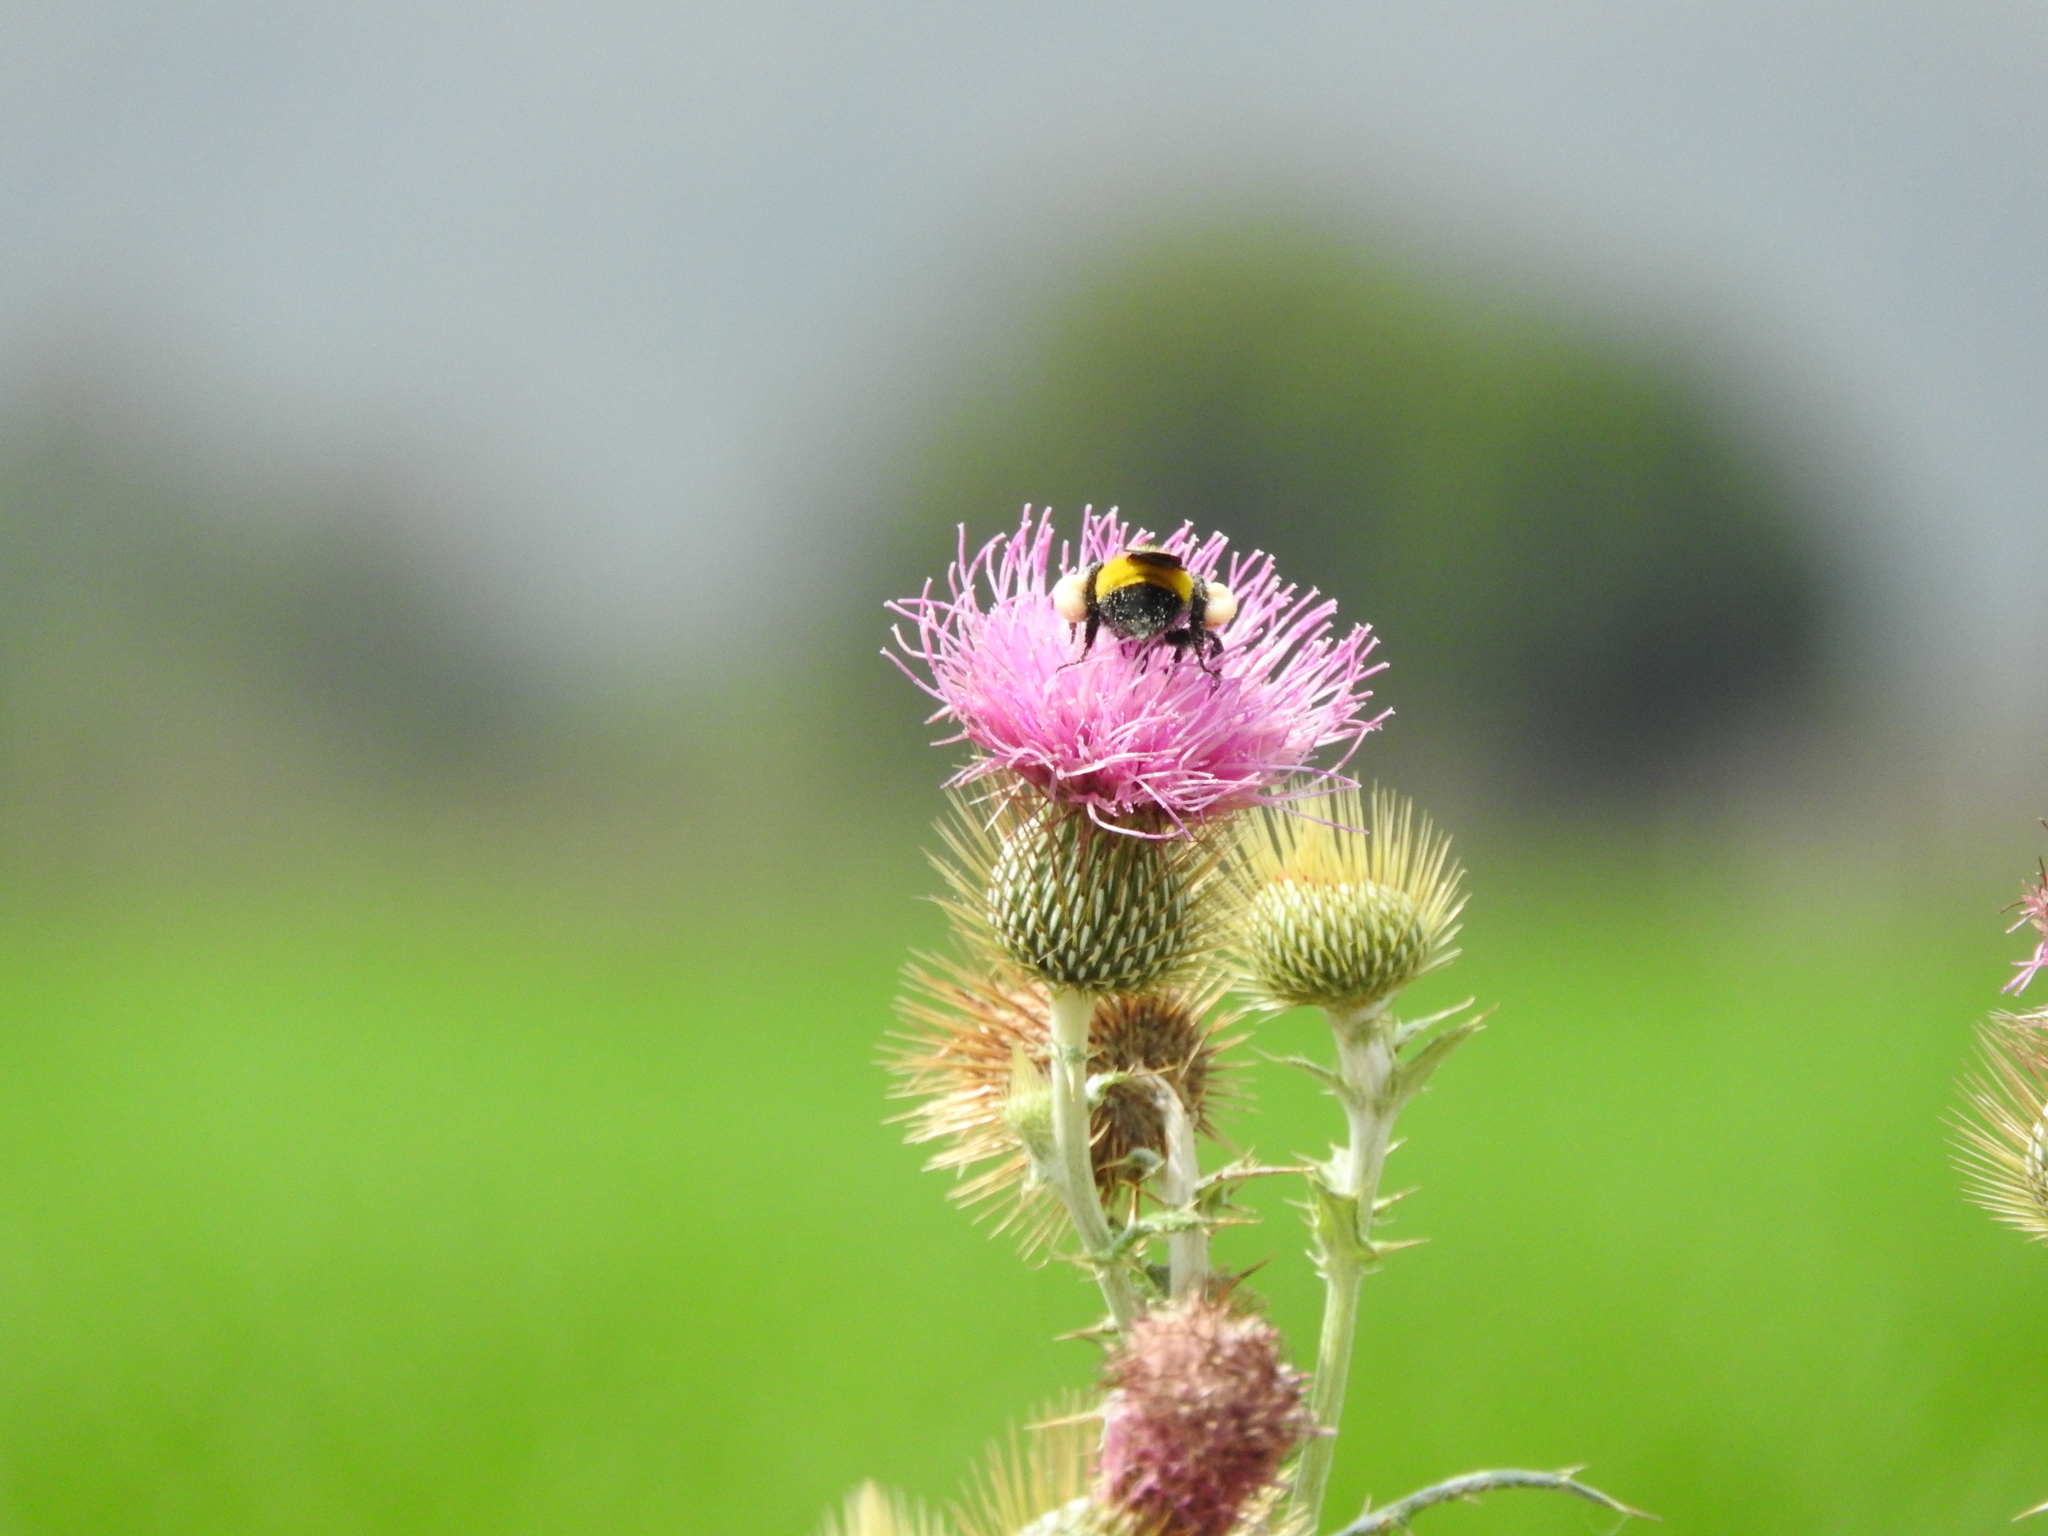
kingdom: Animalia
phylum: Arthropoda
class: Insecta
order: Hymenoptera
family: Apidae
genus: Bombus
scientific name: Bombus sonorus
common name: Sonoran bumble bee
